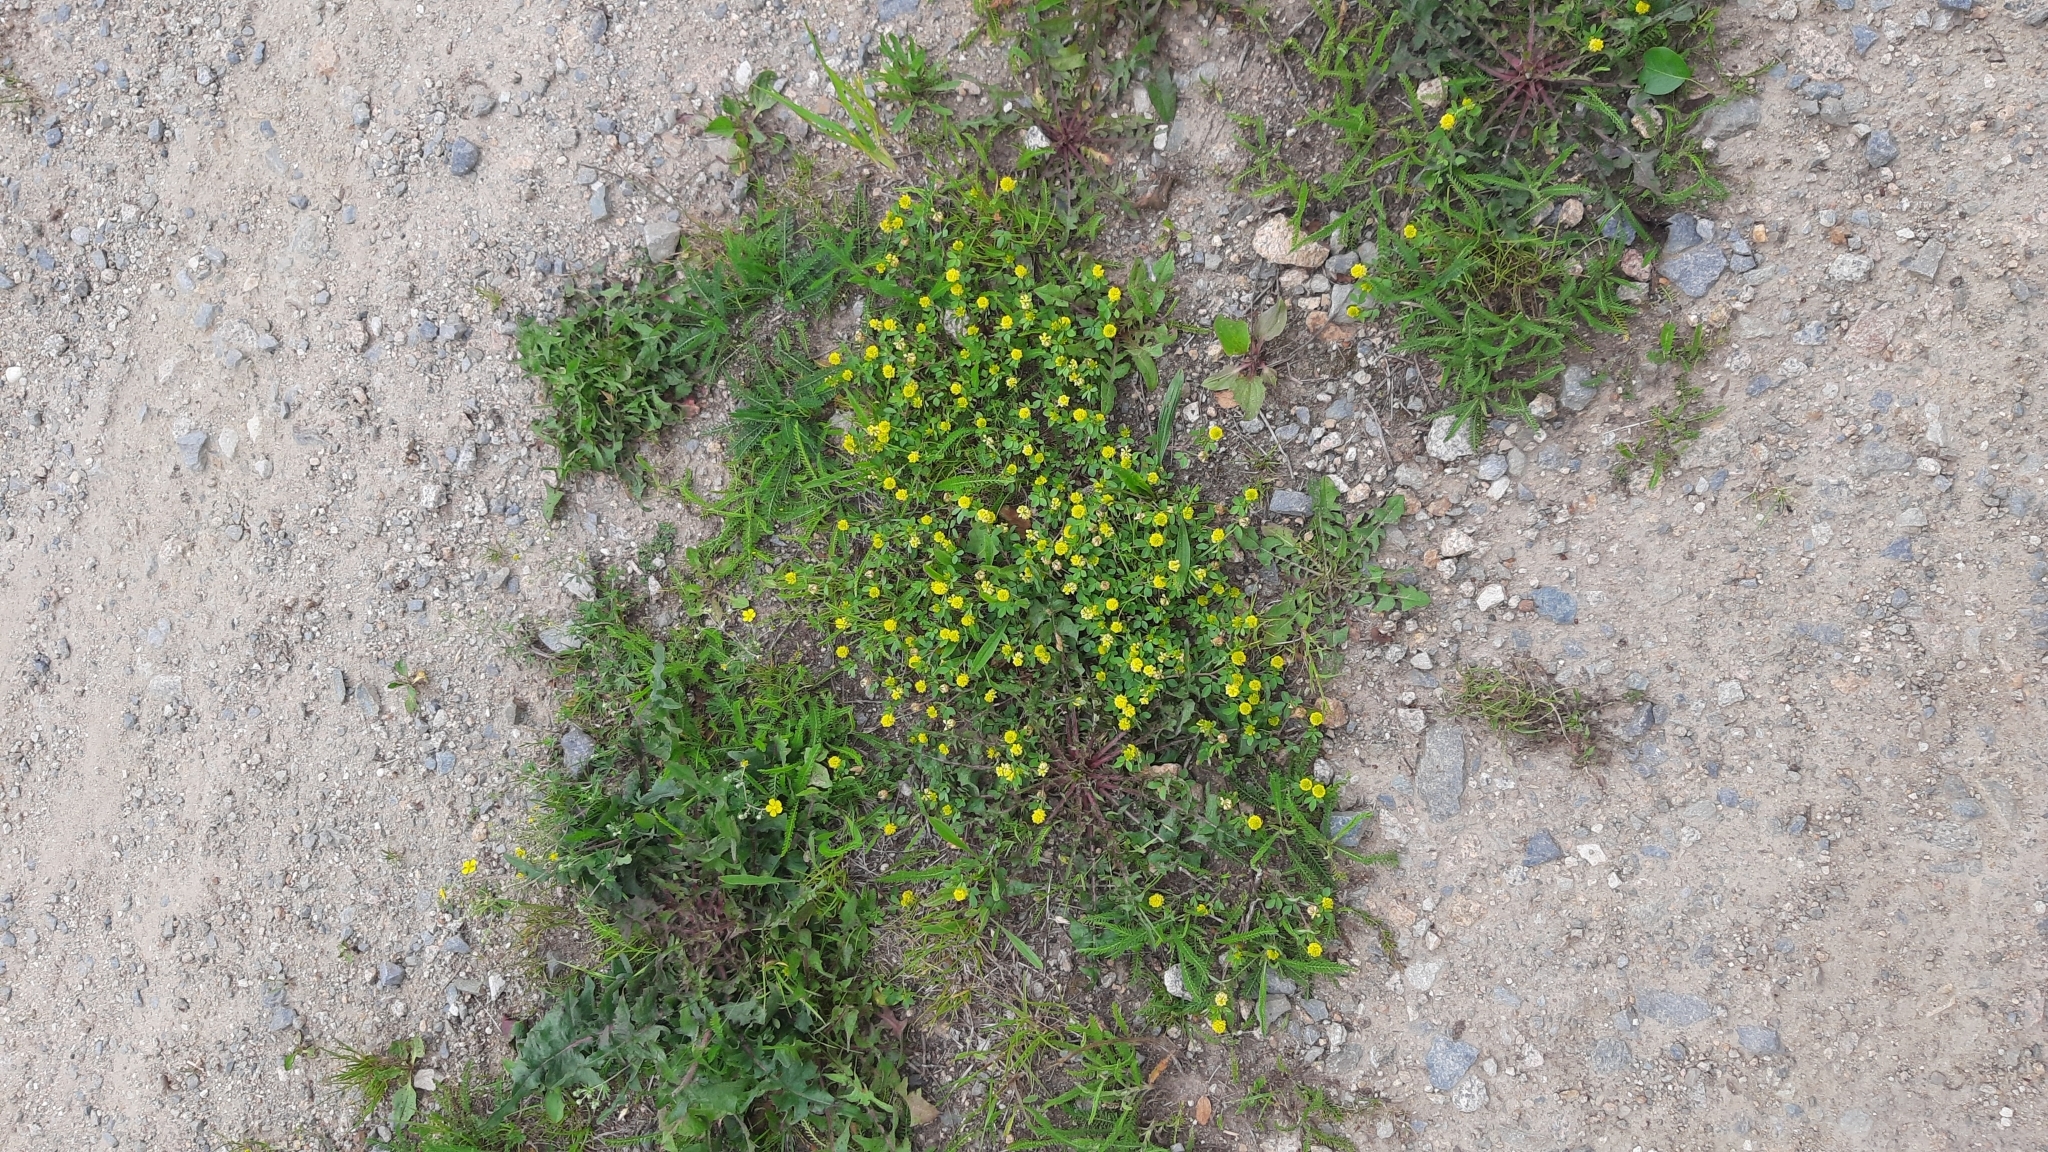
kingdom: Plantae
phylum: Tracheophyta
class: Magnoliopsida
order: Fabales
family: Fabaceae
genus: Trifolium
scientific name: Trifolium campestre
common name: Field clover
